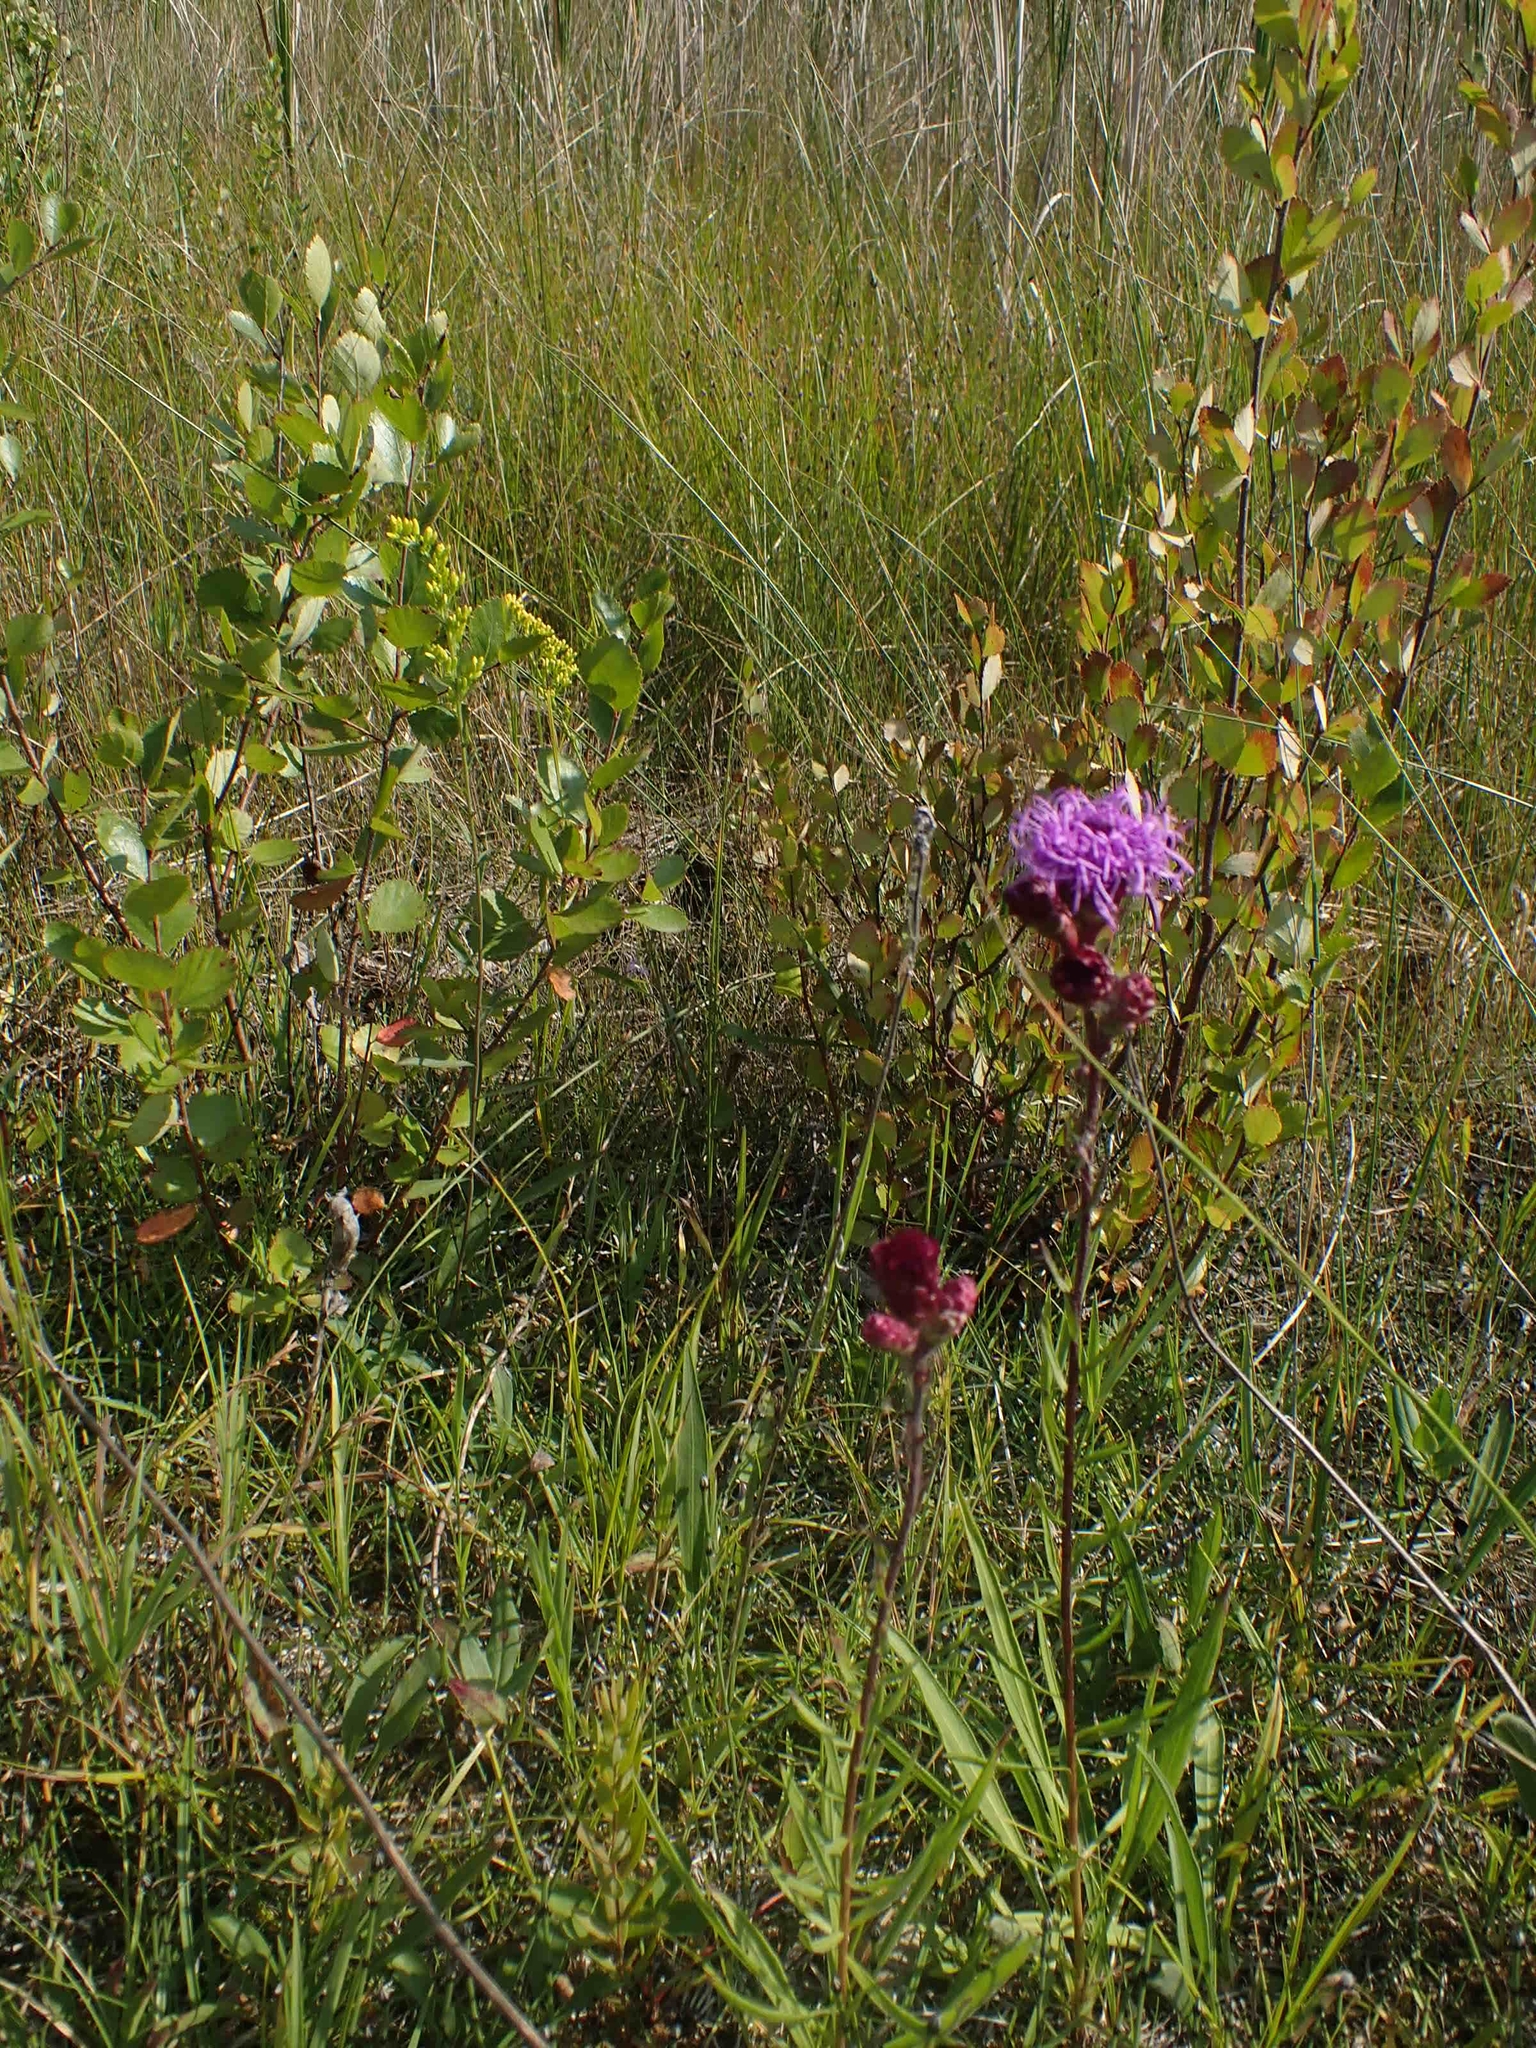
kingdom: Plantae
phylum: Tracheophyta
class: Magnoliopsida
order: Asterales
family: Asteraceae
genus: Liatris
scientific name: Liatris ligulistylis
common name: Northern plains gayfeather
